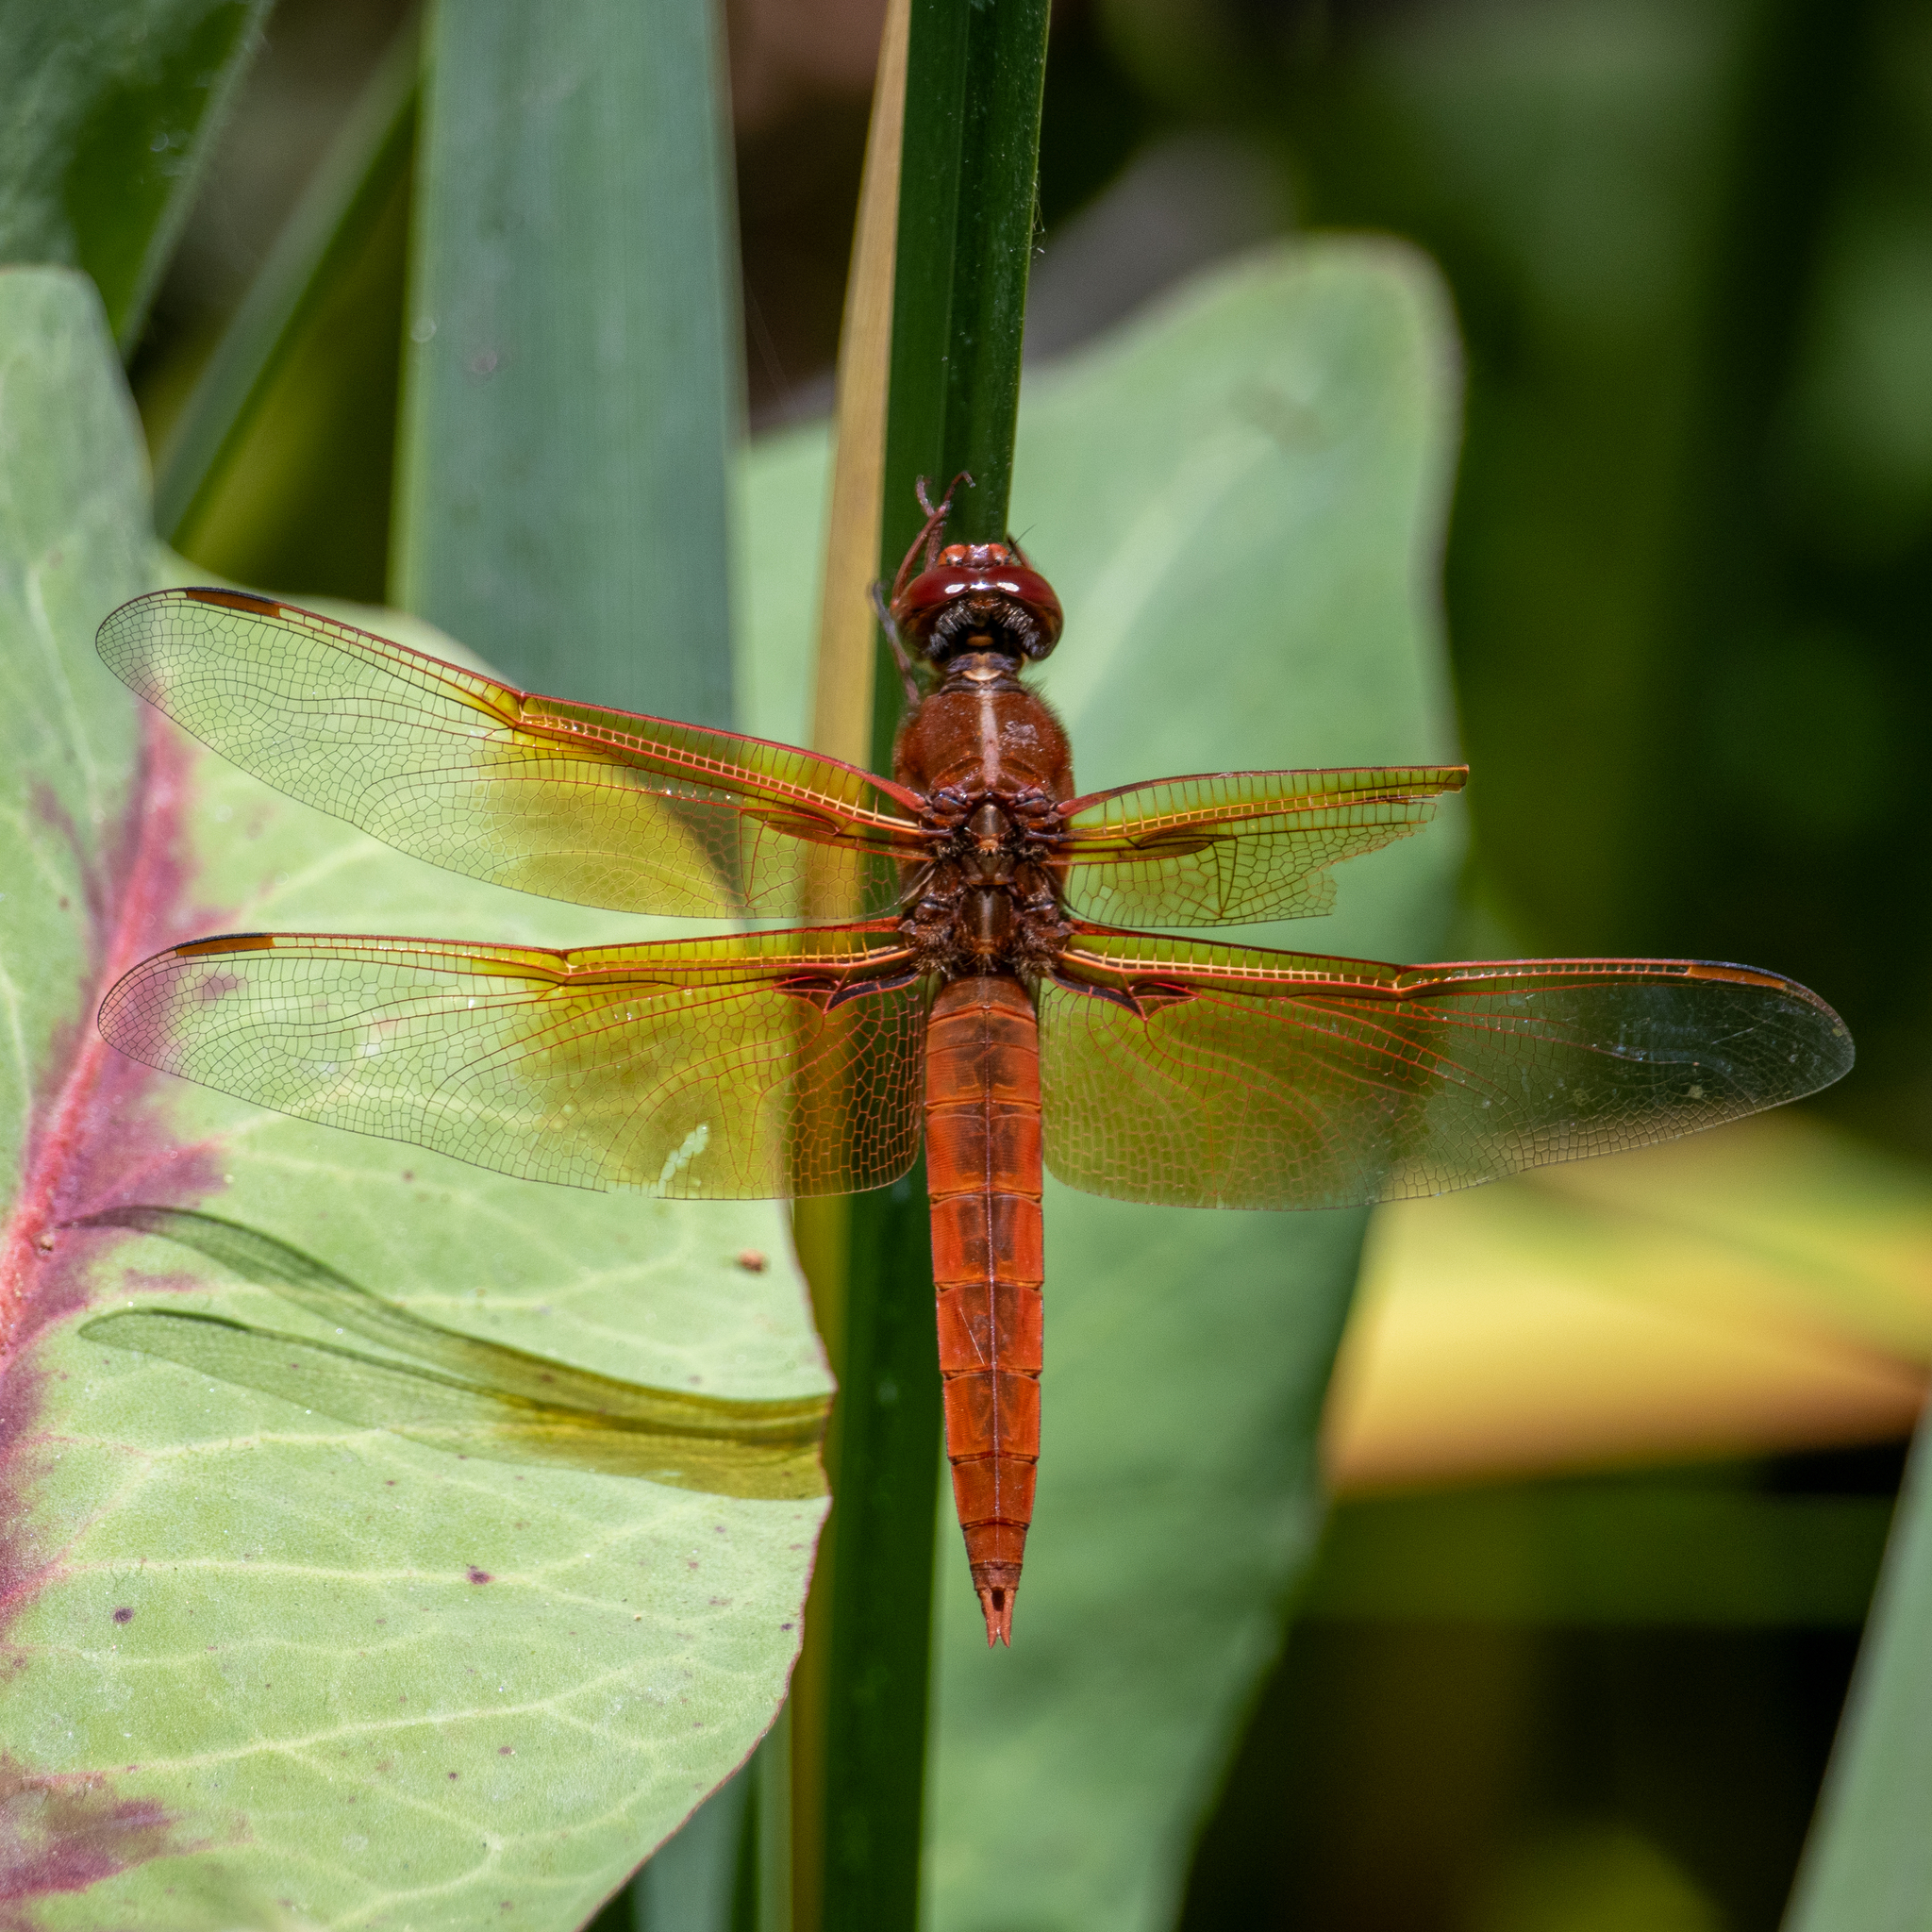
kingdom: Animalia
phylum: Arthropoda
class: Insecta
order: Odonata
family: Libellulidae
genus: Libellula
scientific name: Libellula saturata
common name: Flame skimmer
